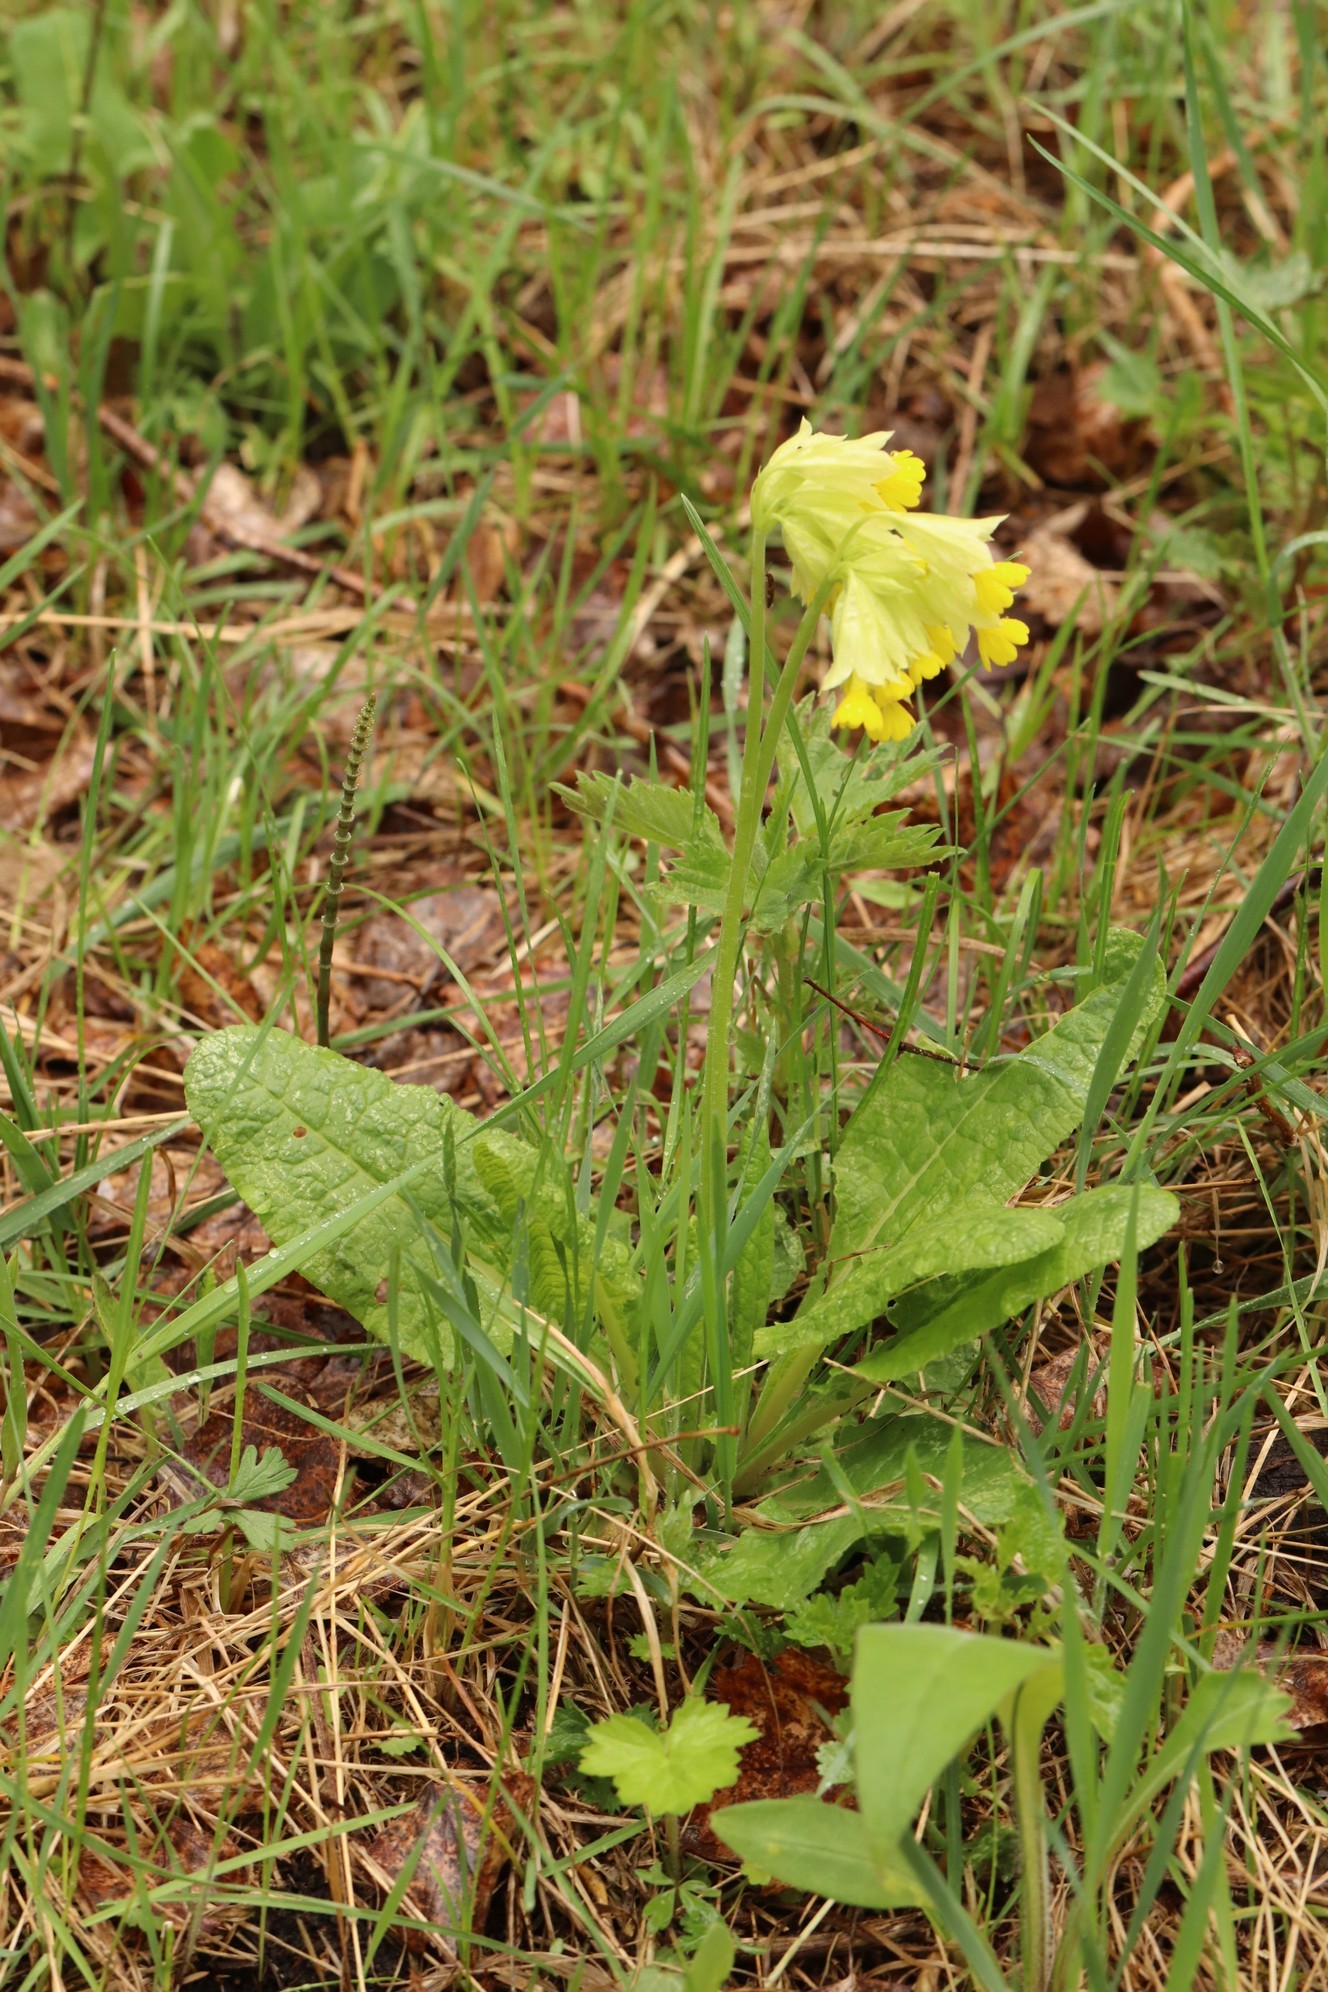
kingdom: Plantae
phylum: Tracheophyta
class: Magnoliopsida
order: Ericales
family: Primulaceae
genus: Primula
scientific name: Primula veris
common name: Cowslip
